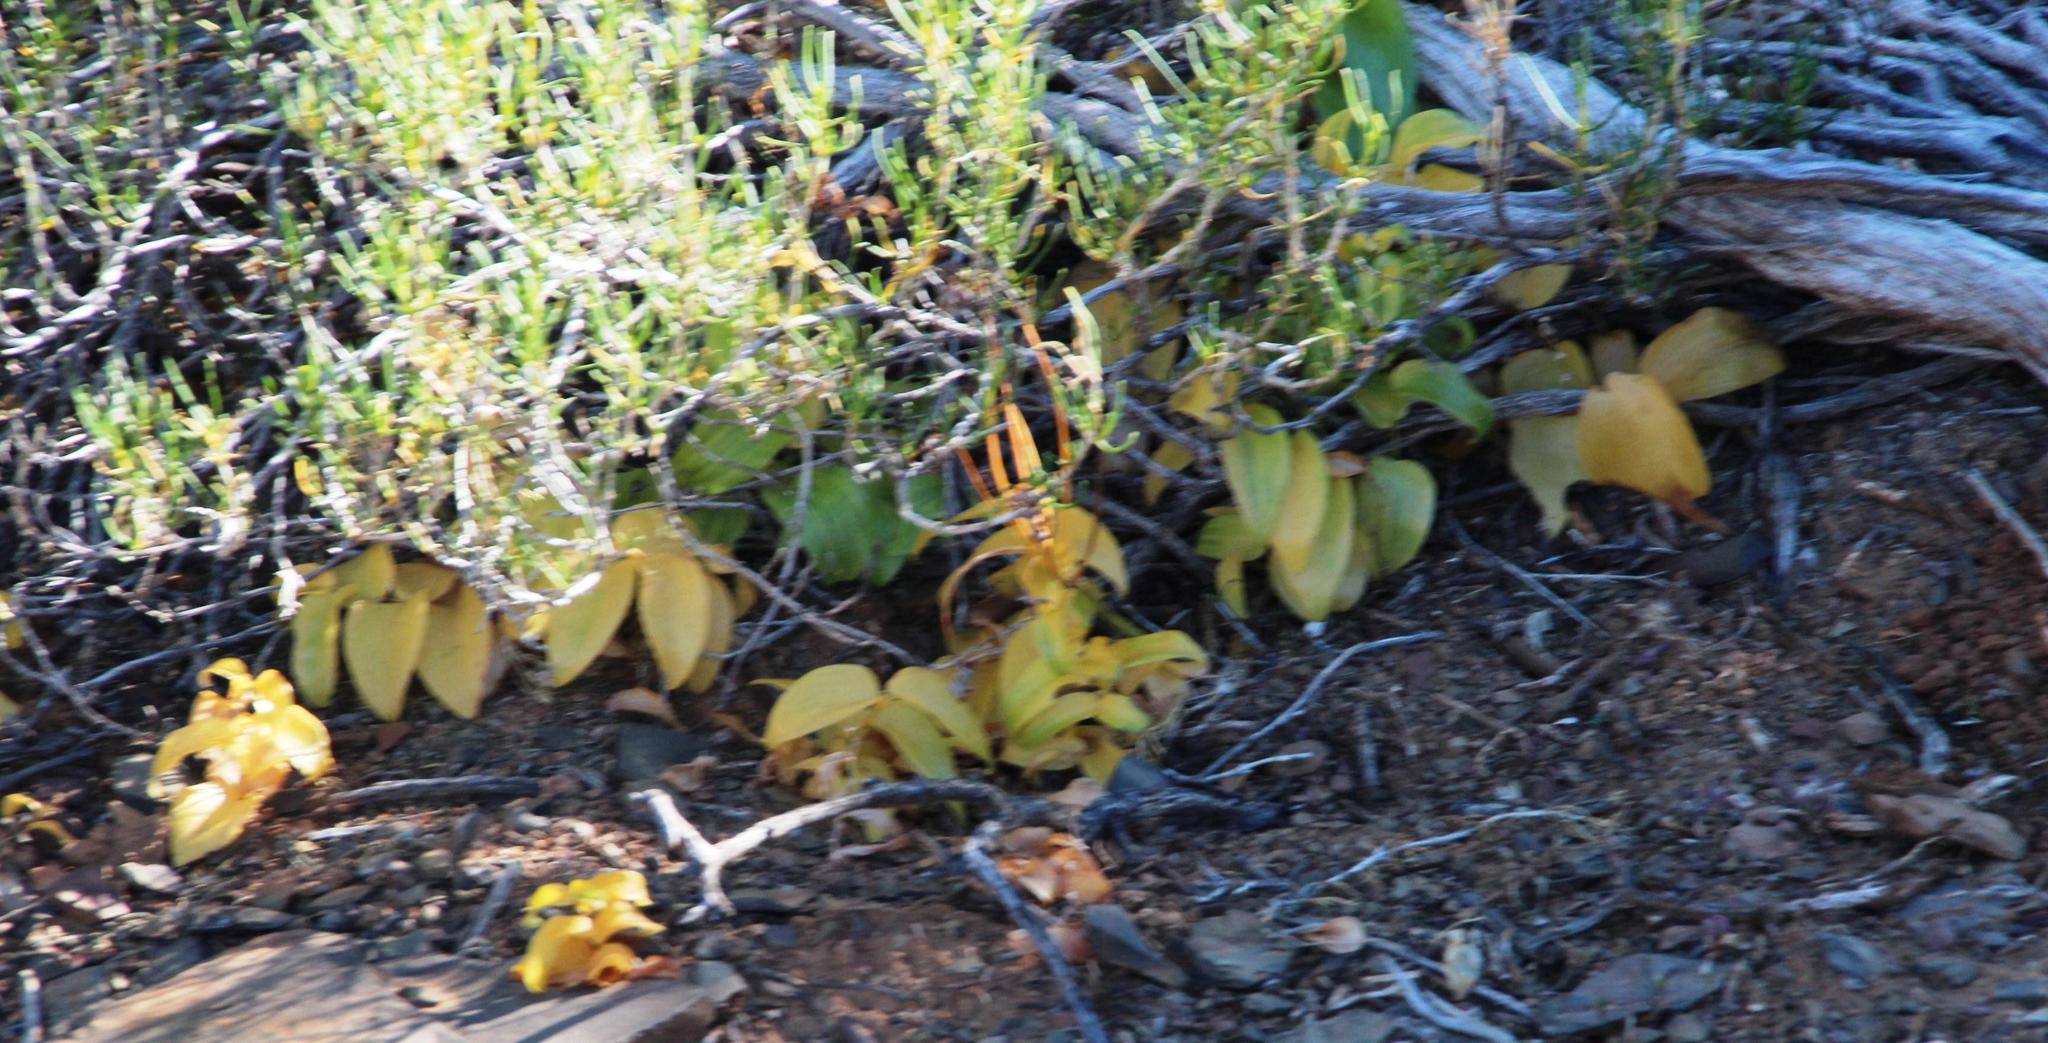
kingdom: Plantae
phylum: Tracheophyta
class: Liliopsida
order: Asparagales
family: Asparagaceae
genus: Asparagus
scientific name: Asparagus multituberosus
